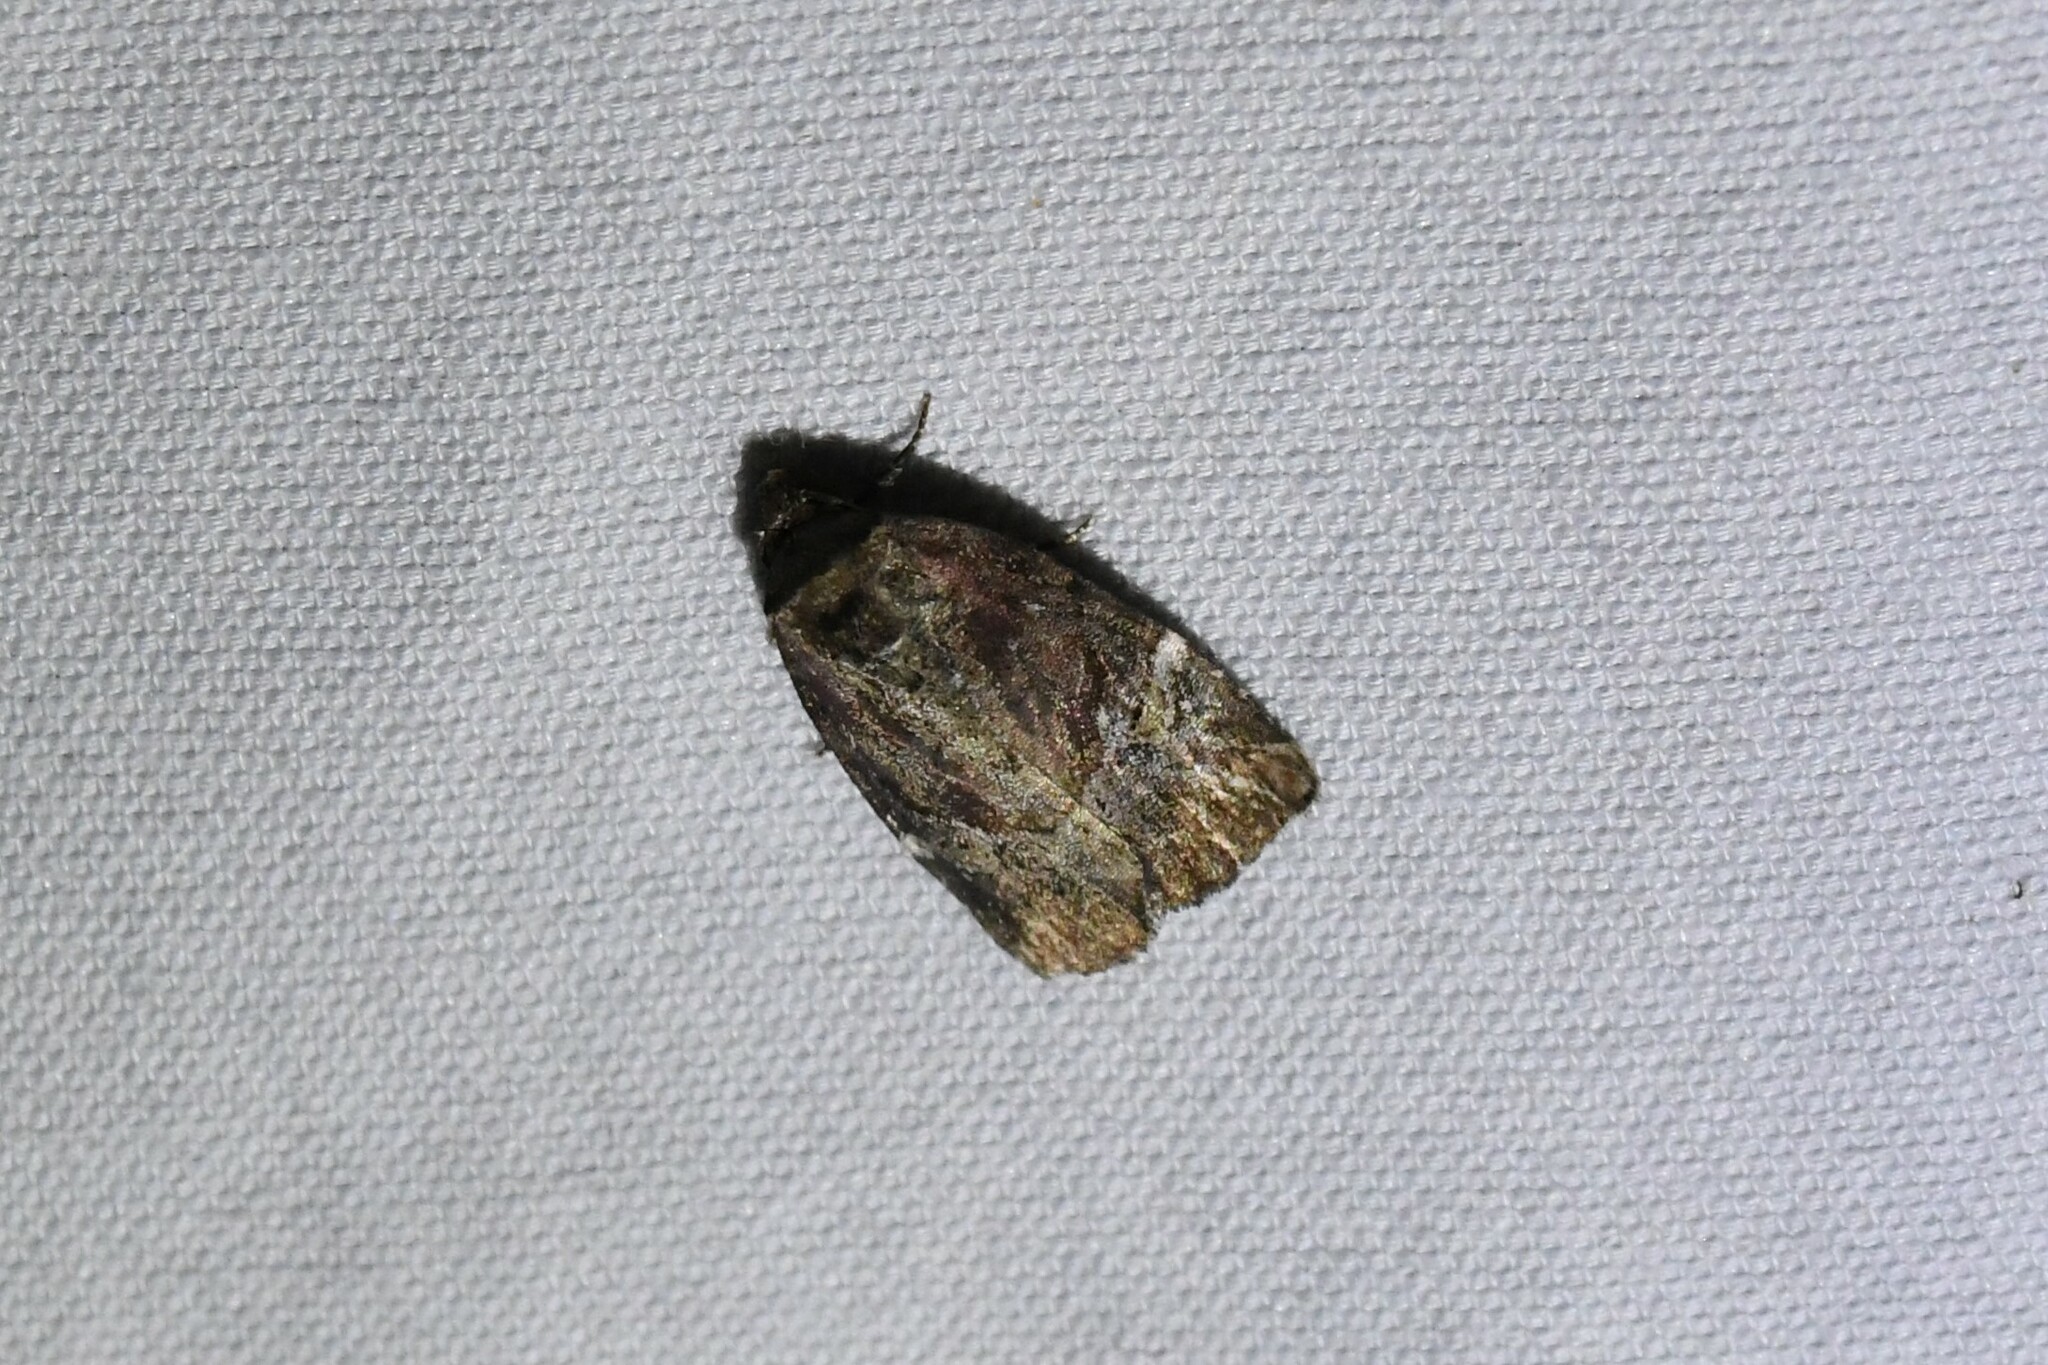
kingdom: Animalia
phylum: Arthropoda
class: Insecta
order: Lepidoptera
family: Noctuidae
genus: Elaphria
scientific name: Elaphria versicolor
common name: Fir harlequin
